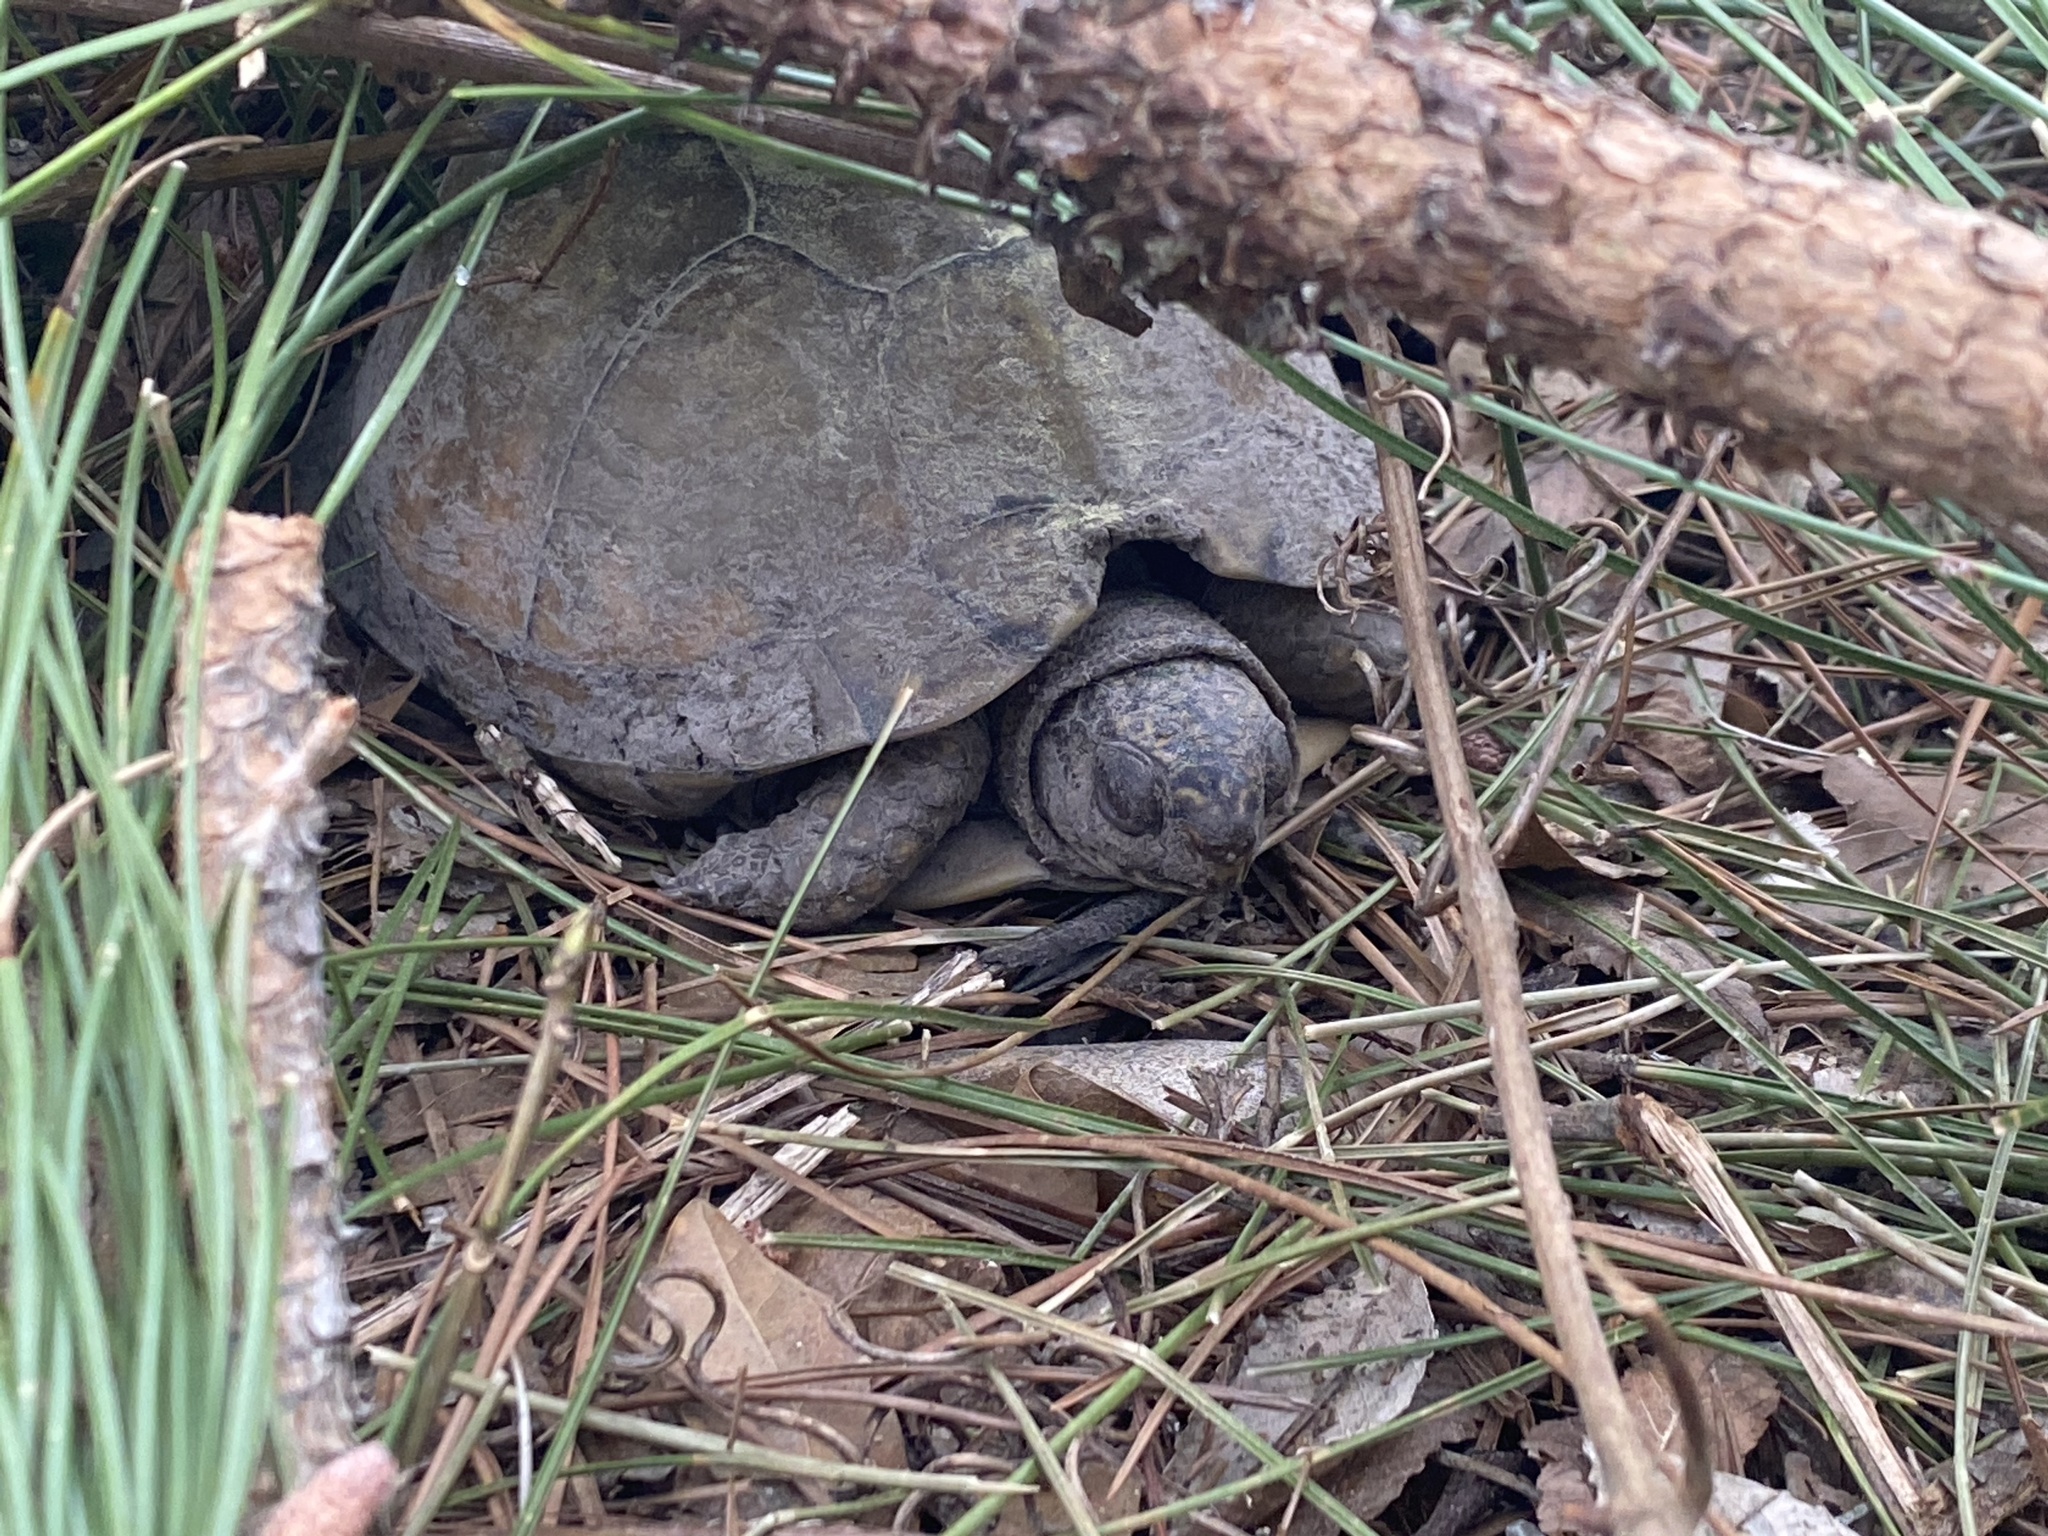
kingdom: Animalia
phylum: Chordata
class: Testudines
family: Emydidae
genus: Terrapene
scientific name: Terrapene carolina
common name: Common box turtle
